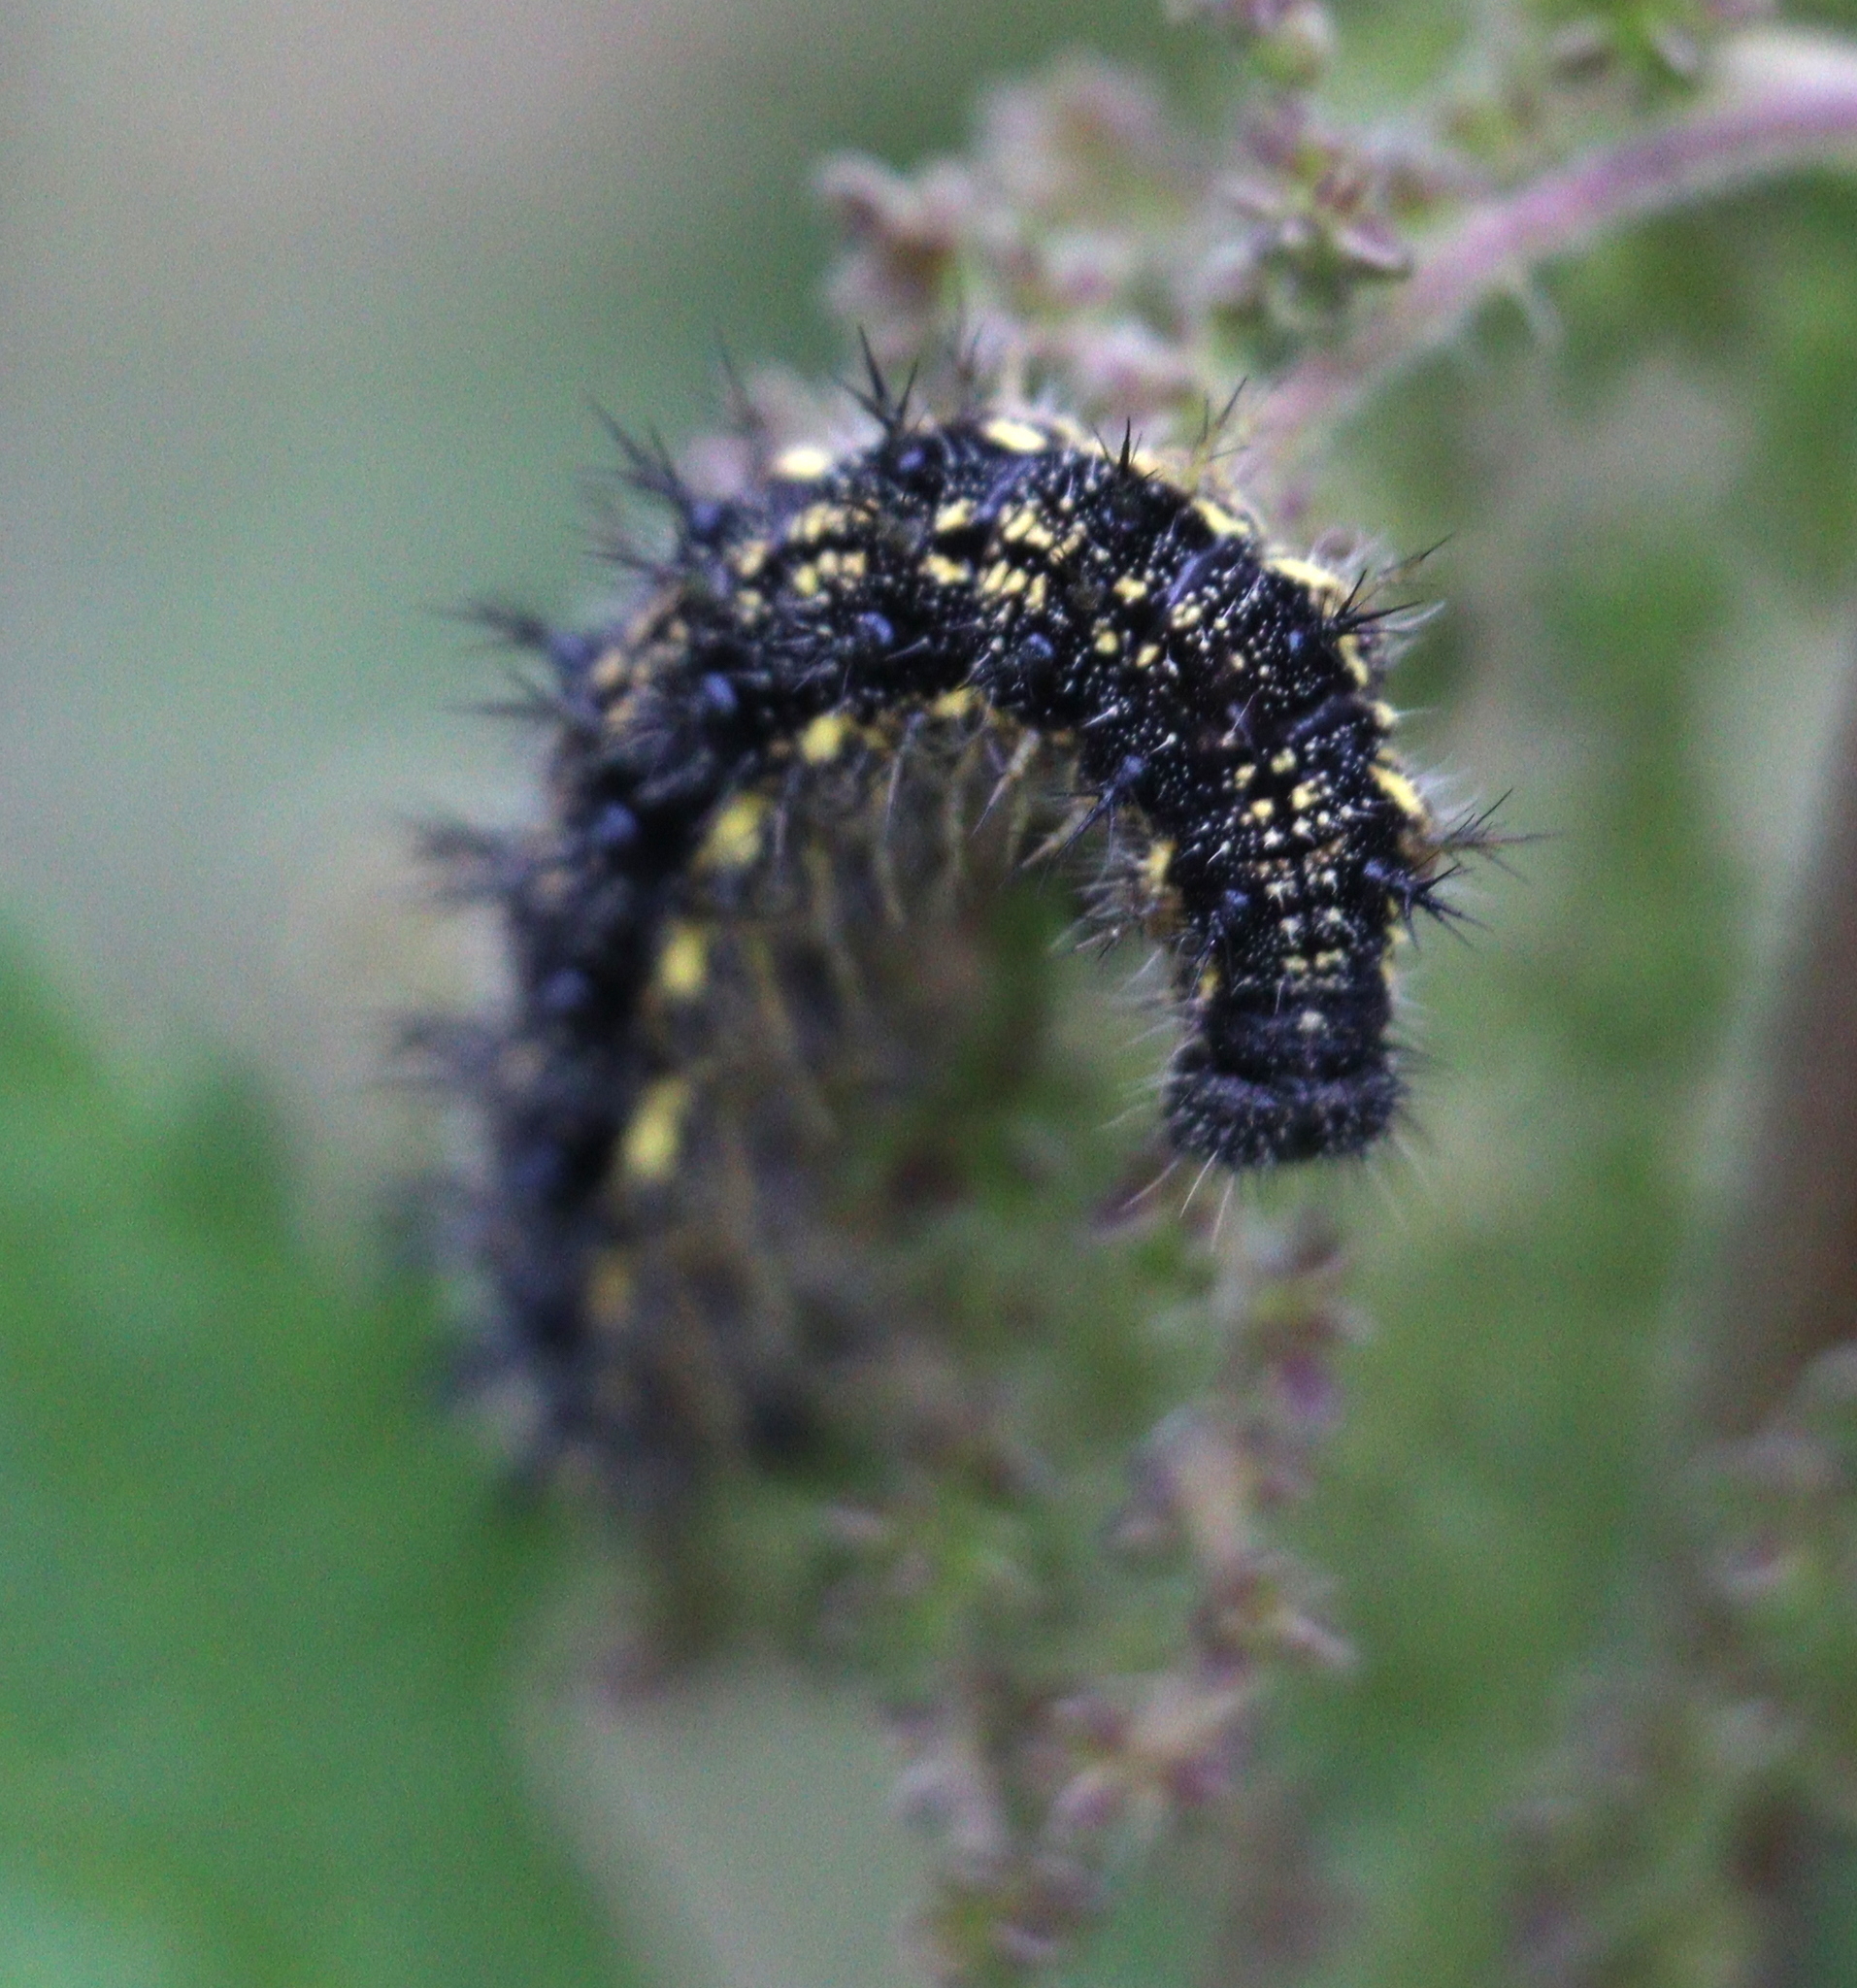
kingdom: Animalia
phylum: Arthropoda
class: Insecta
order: Lepidoptera
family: Nymphalidae
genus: Aglais
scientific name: Aglais urticae
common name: Small tortoiseshell
